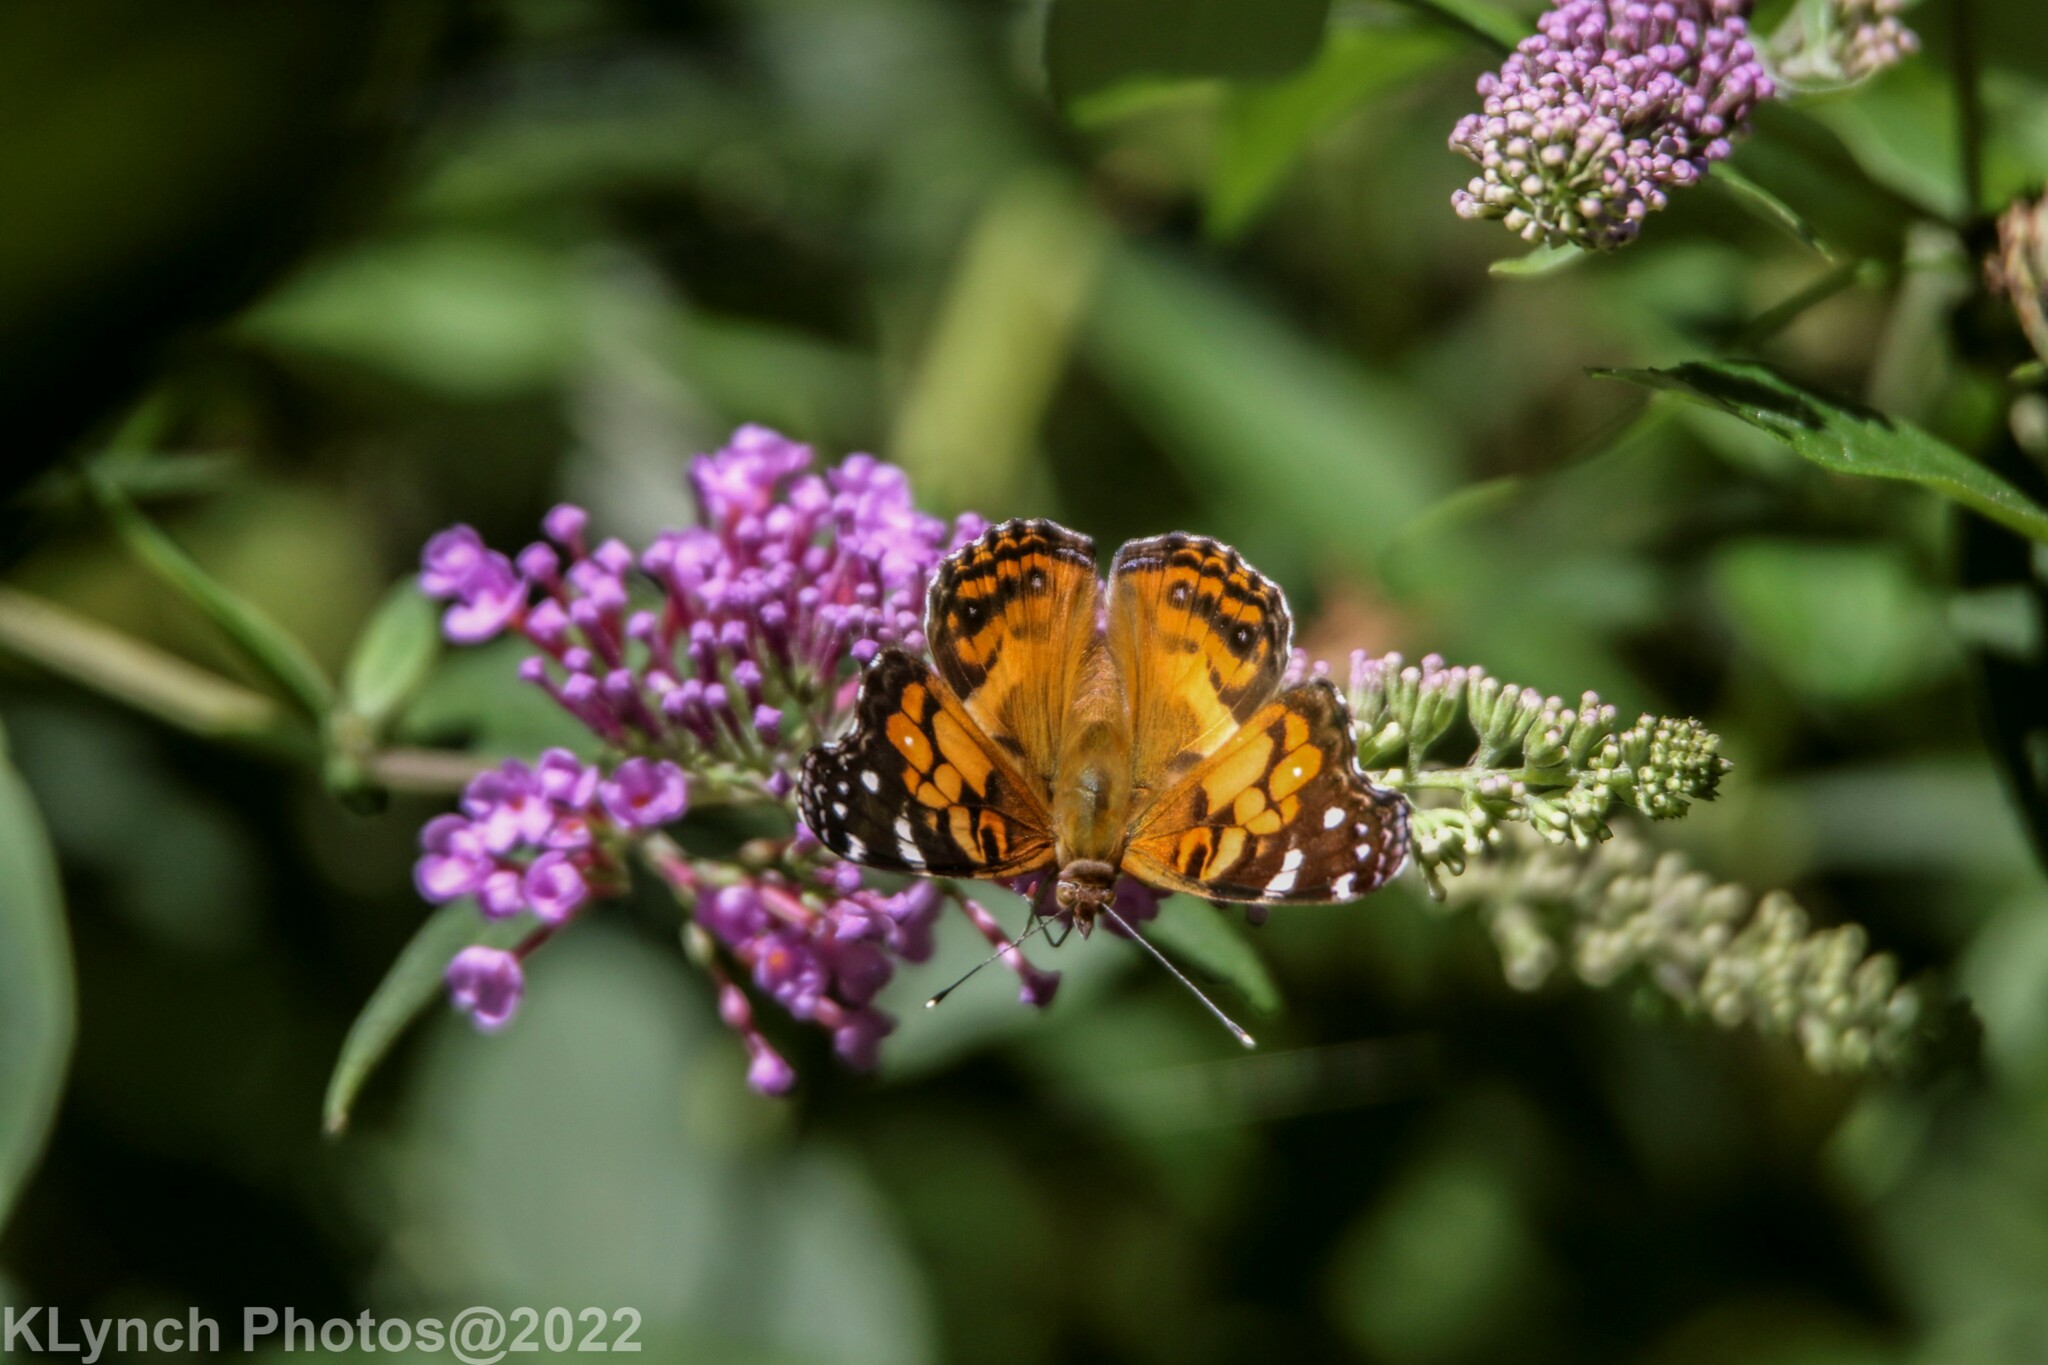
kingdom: Animalia
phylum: Arthropoda
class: Insecta
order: Lepidoptera
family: Nymphalidae
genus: Vanessa
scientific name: Vanessa virginiensis
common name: American lady
